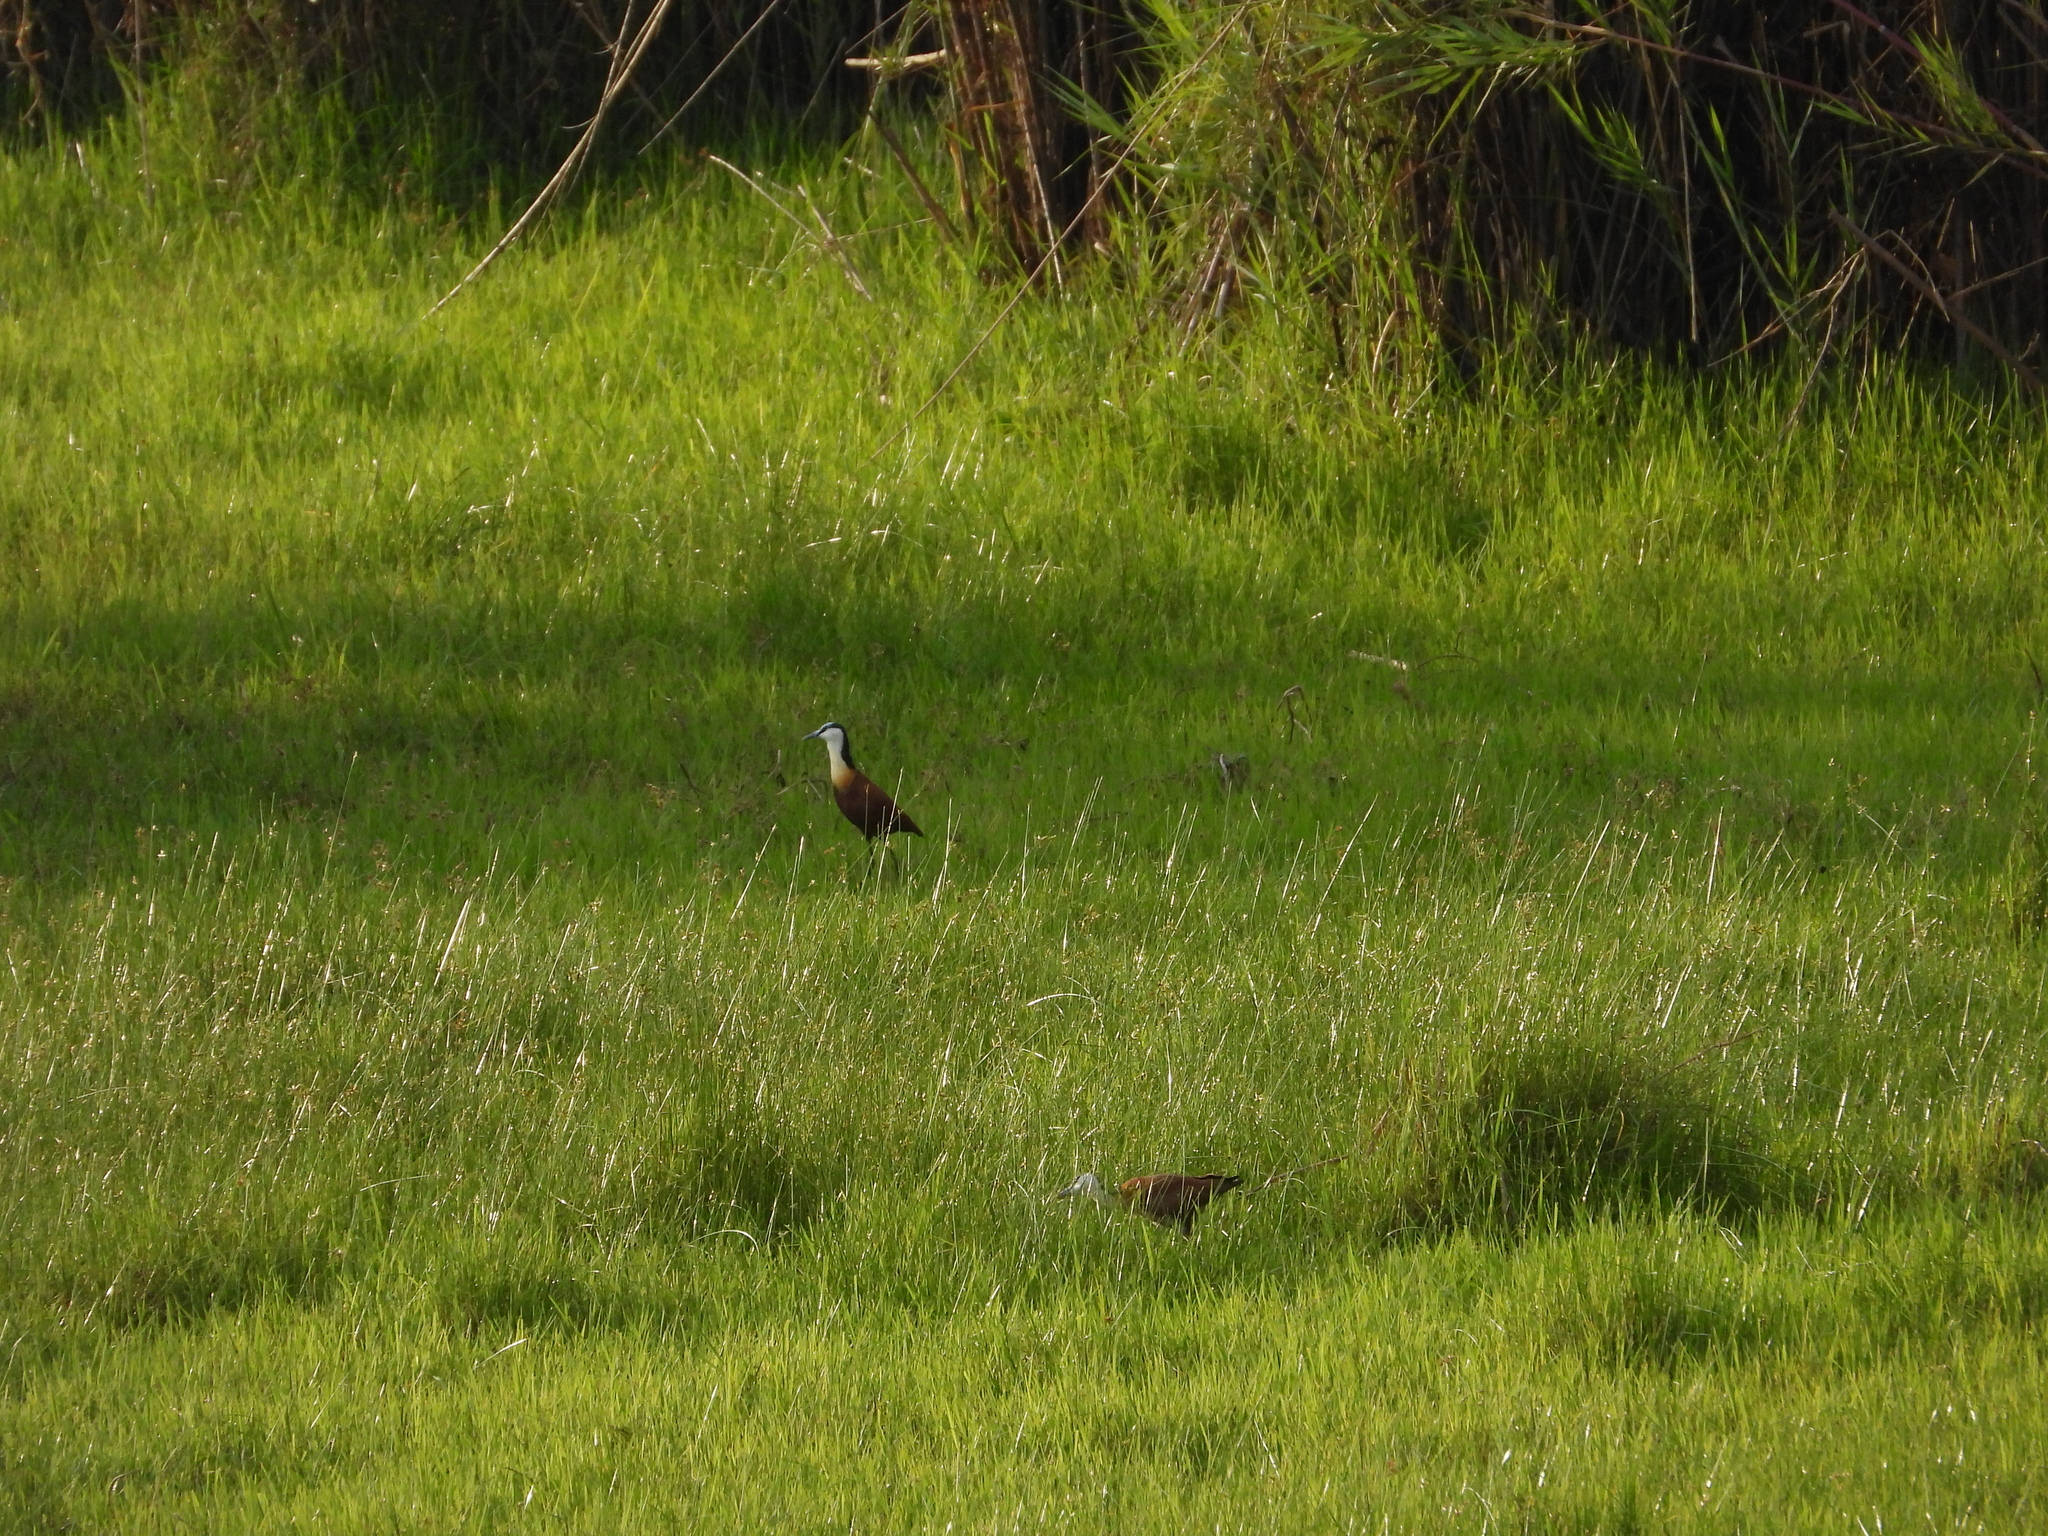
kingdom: Animalia
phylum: Chordata
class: Aves
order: Charadriiformes
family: Jacanidae
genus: Actophilornis
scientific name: Actophilornis africanus
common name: African jacana
